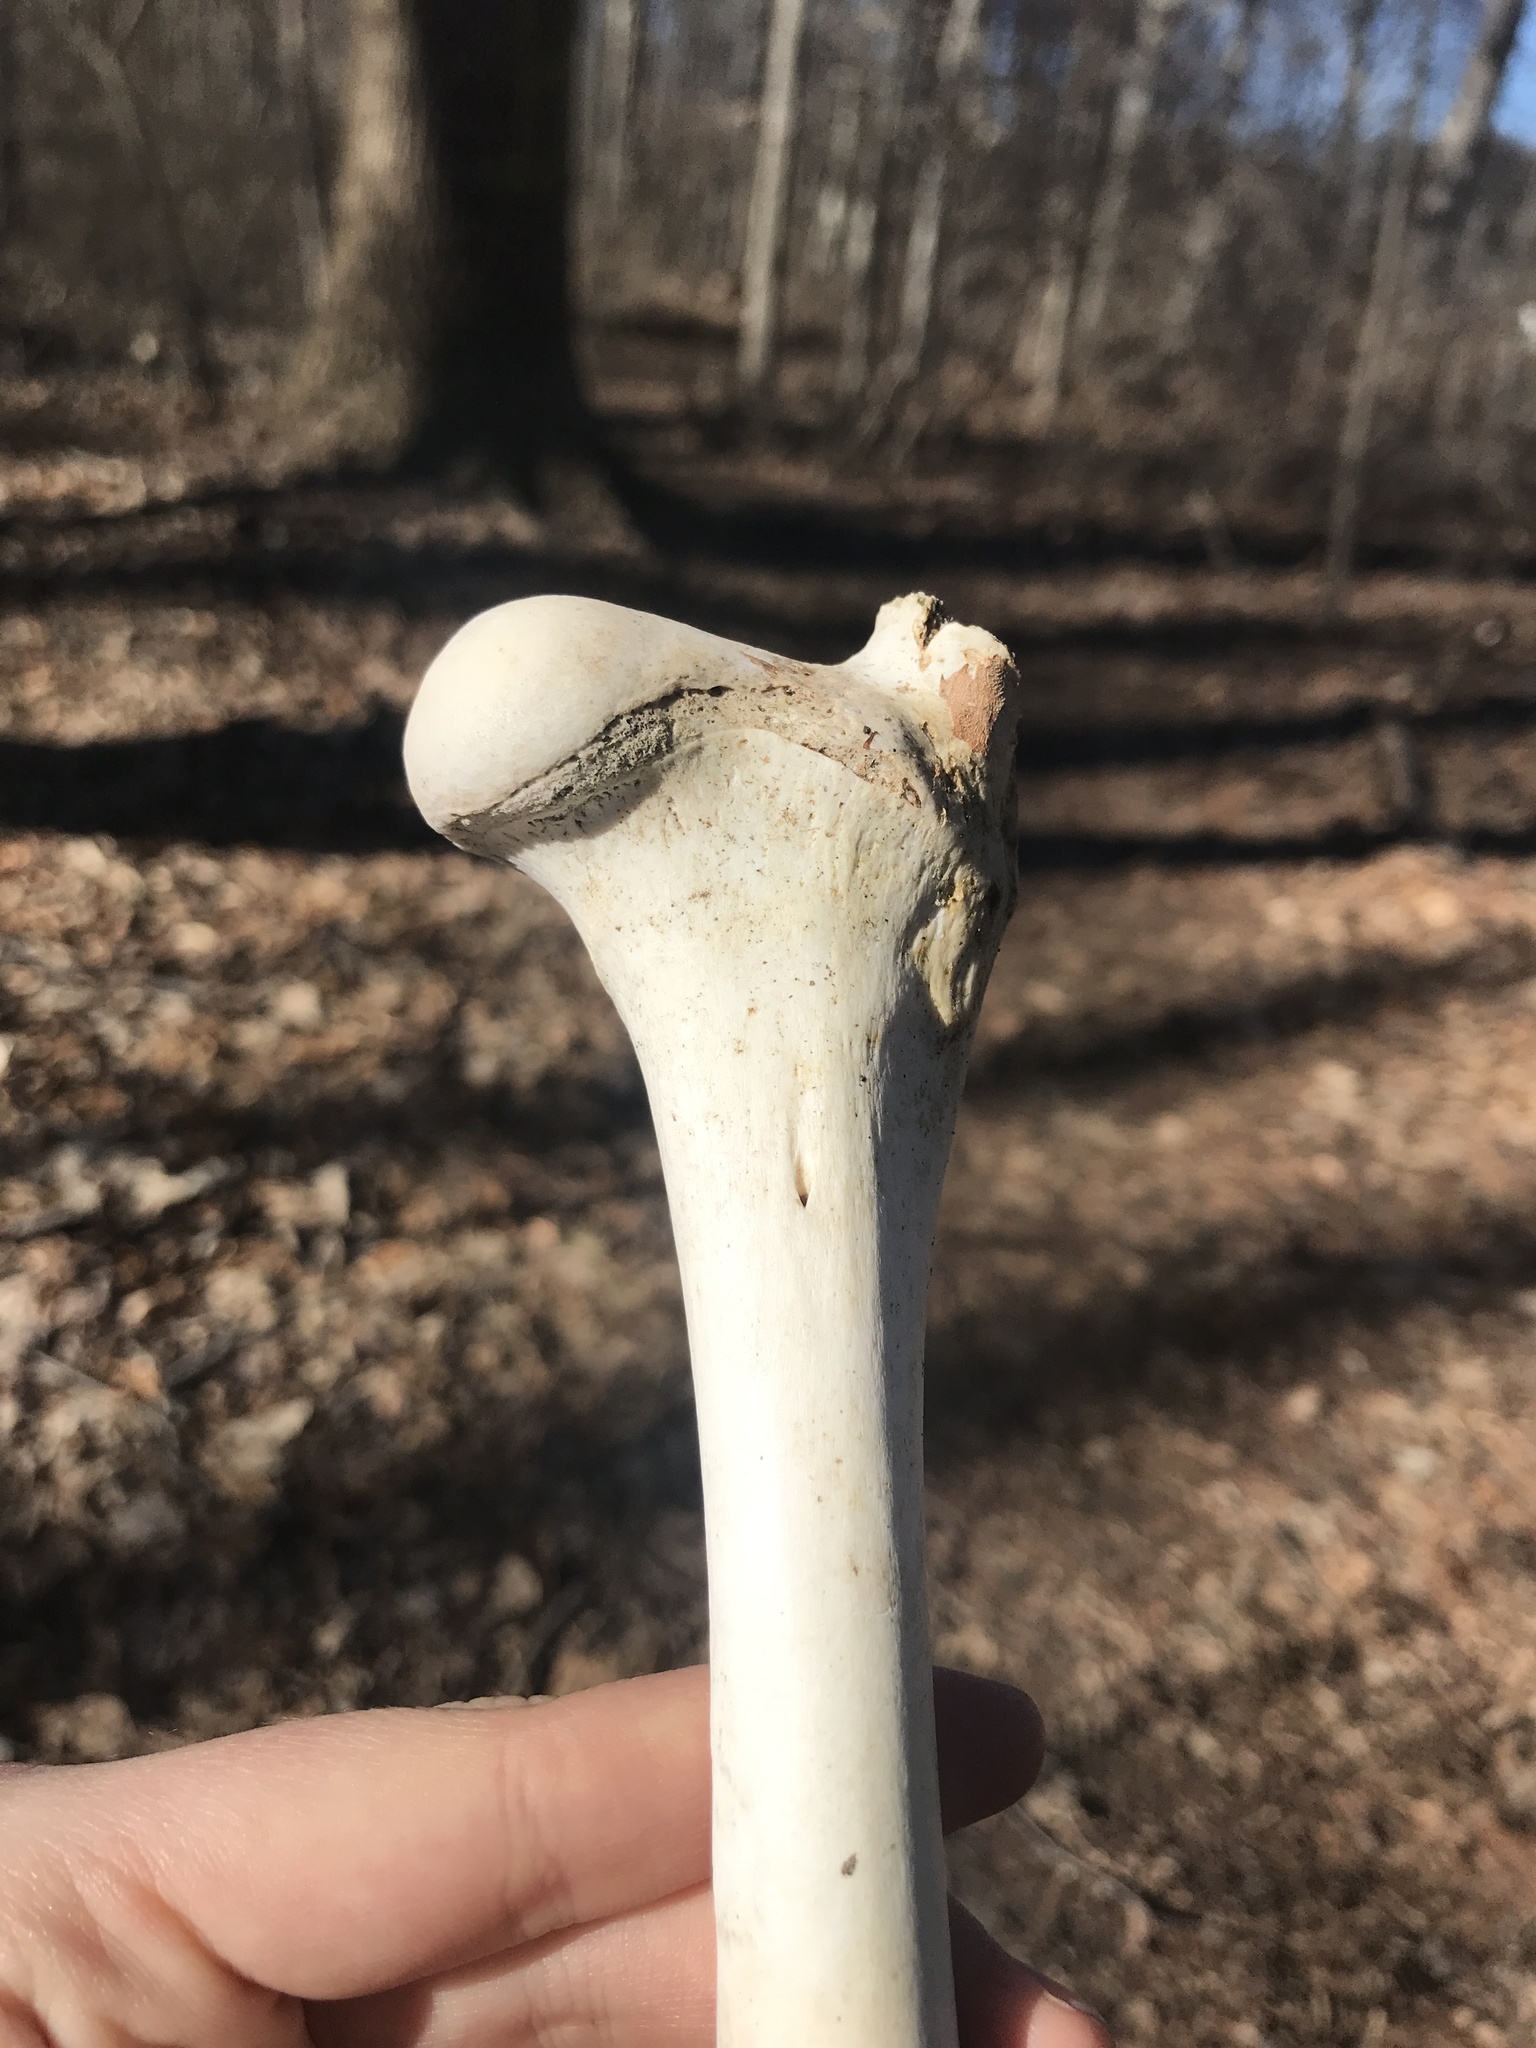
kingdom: Animalia
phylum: Chordata
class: Mammalia
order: Artiodactyla
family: Cervidae
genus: Odocoileus
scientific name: Odocoileus virginianus
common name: White-tailed deer
